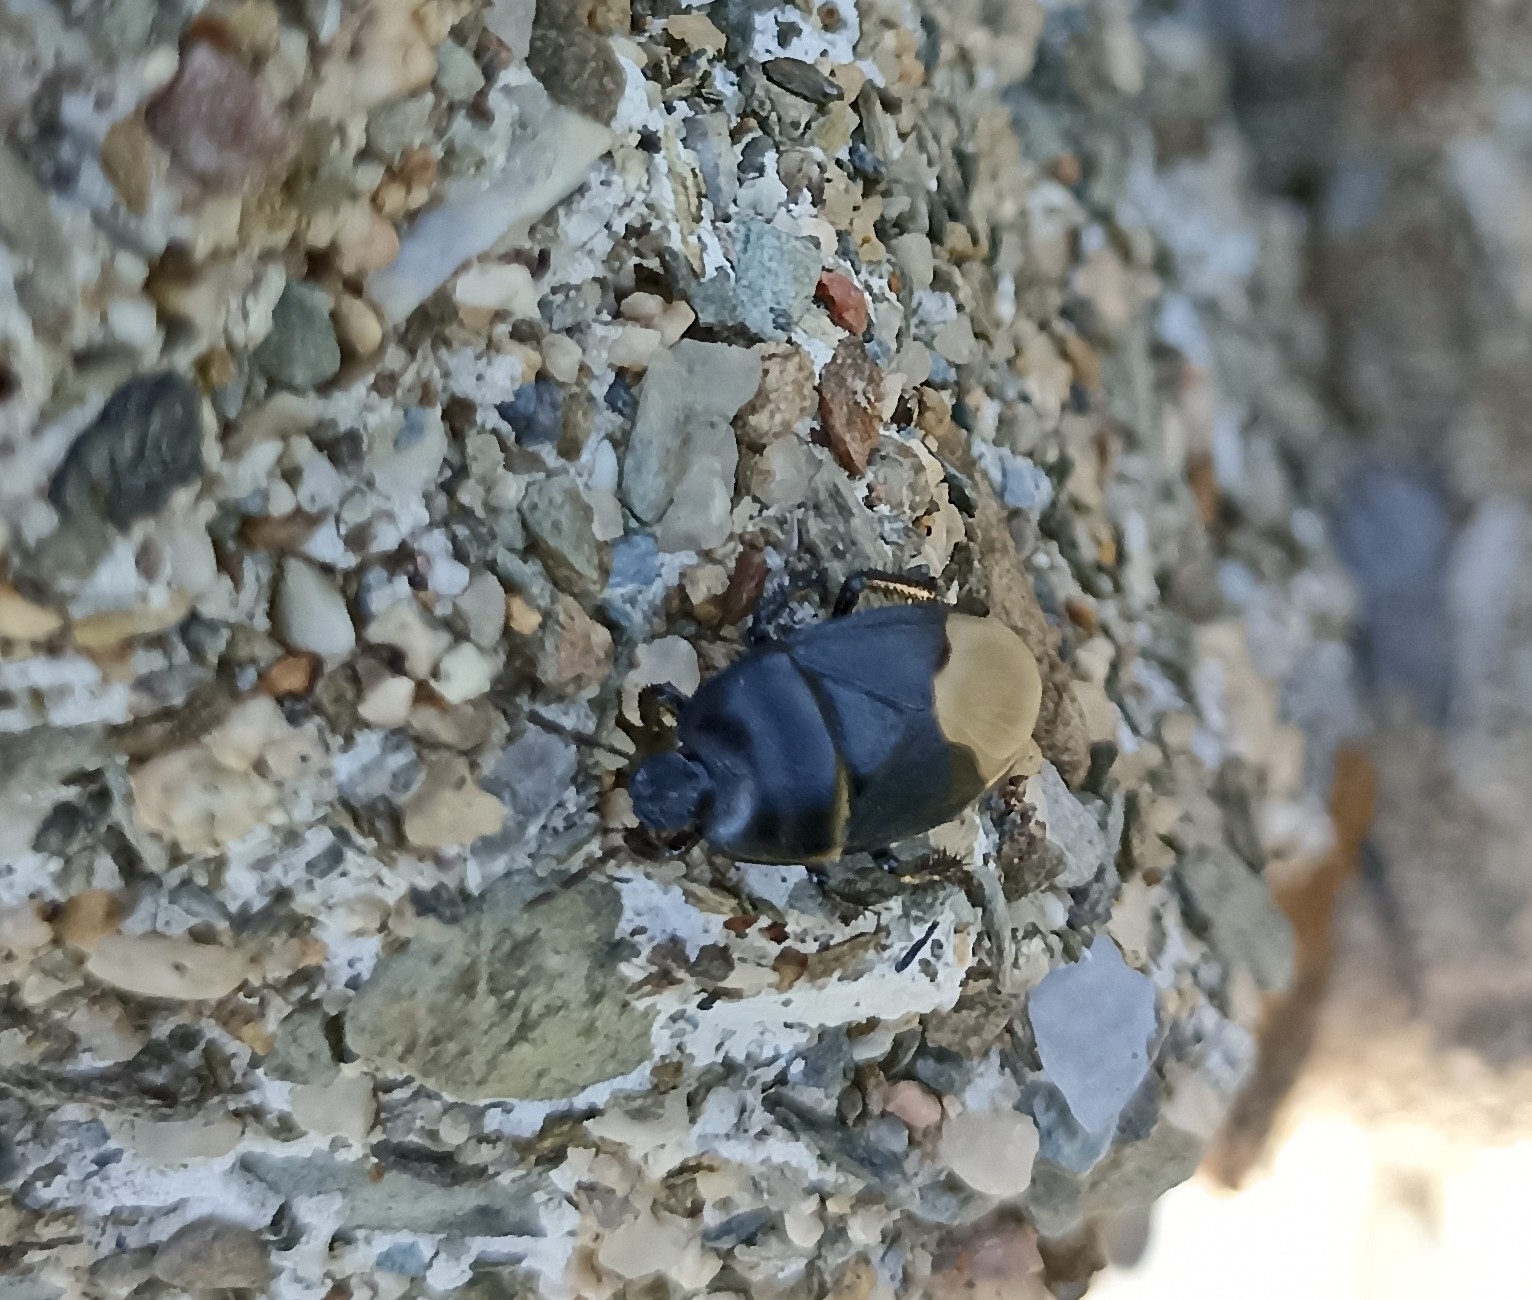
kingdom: Animalia
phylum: Arthropoda
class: Insecta
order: Hemiptera
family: Cydnidae
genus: Cydnus
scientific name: Cydnus aterrimus
